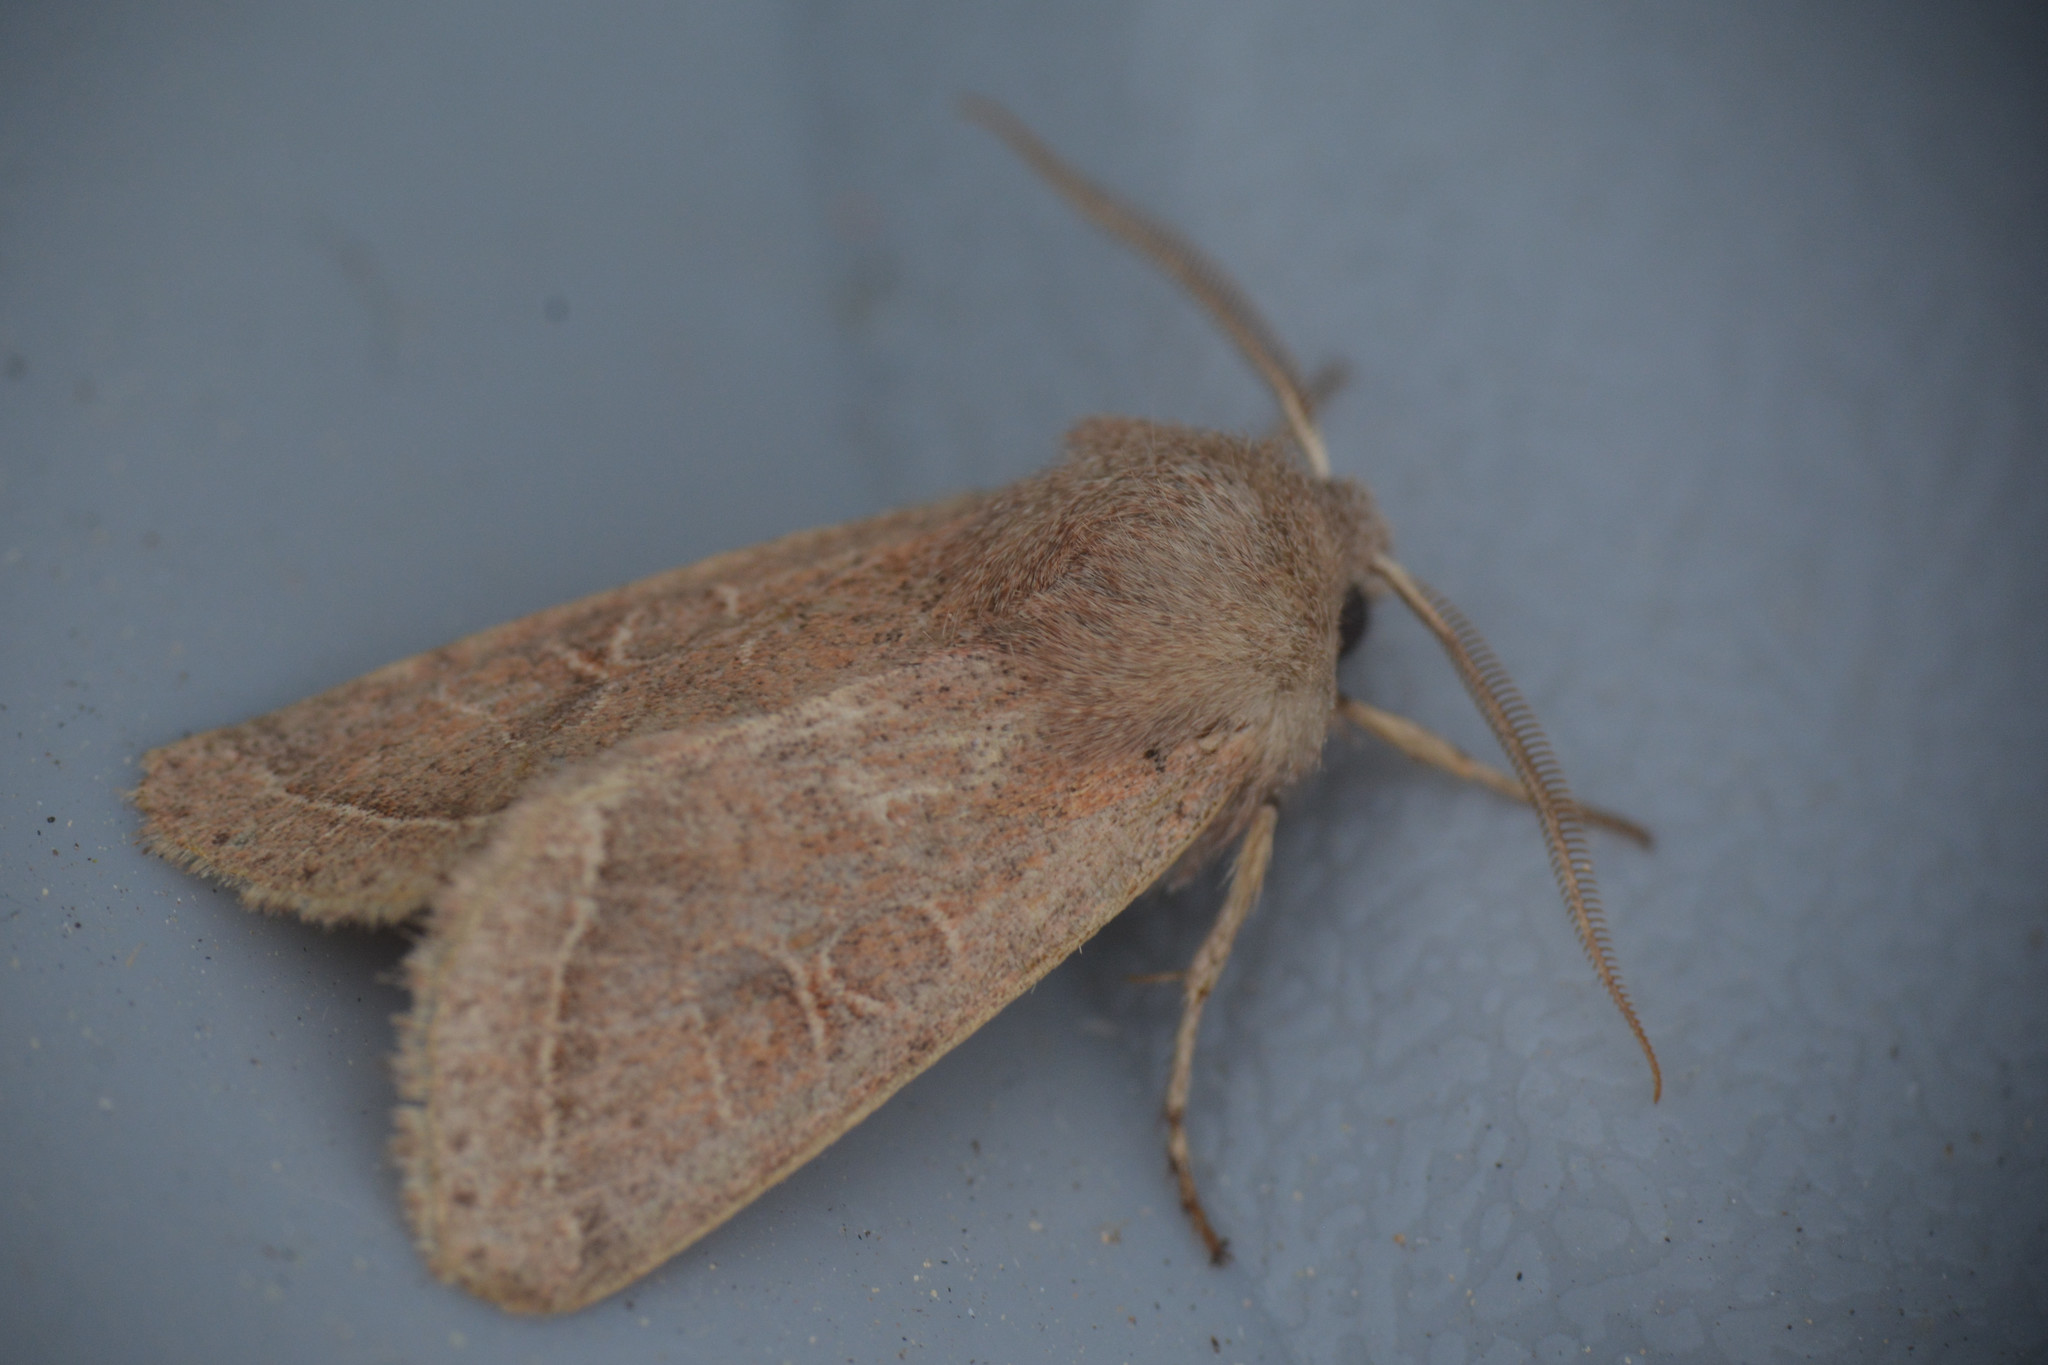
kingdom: Animalia
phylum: Arthropoda
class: Insecta
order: Lepidoptera
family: Noctuidae
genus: Orthosia
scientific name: Orthosia cerasi
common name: Common quaker
